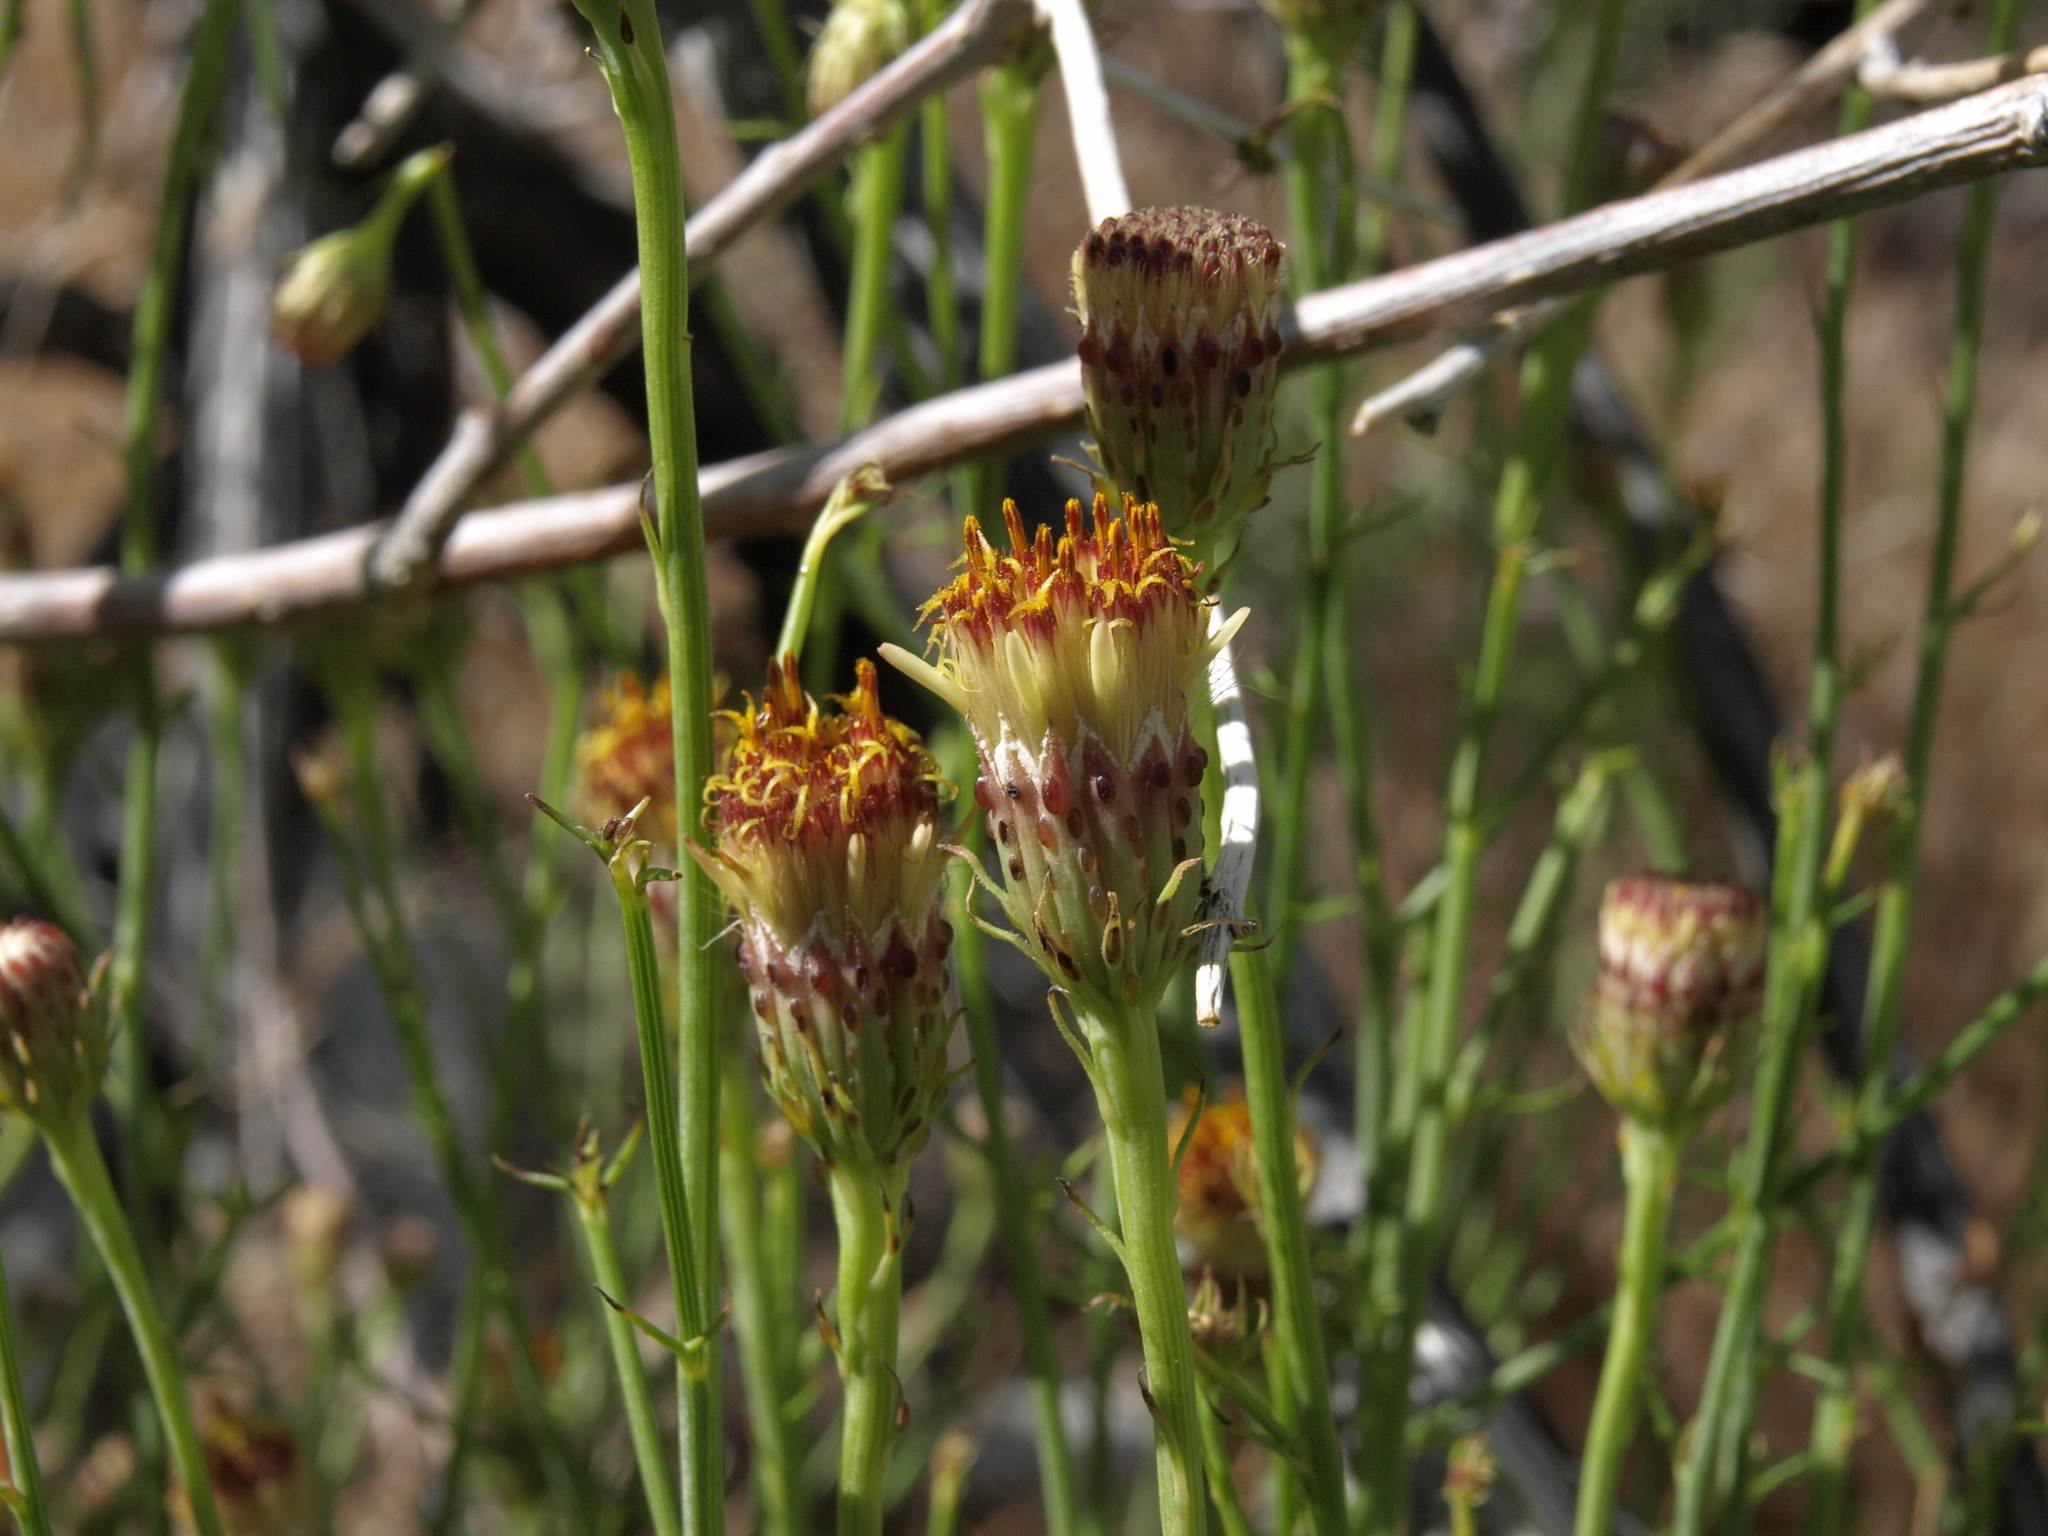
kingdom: Plantae
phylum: Tracheophyta
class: Magnoliopsida
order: Asterales
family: Asteraceae
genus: Adenophyllum
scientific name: Adenophyllum porophylloides
